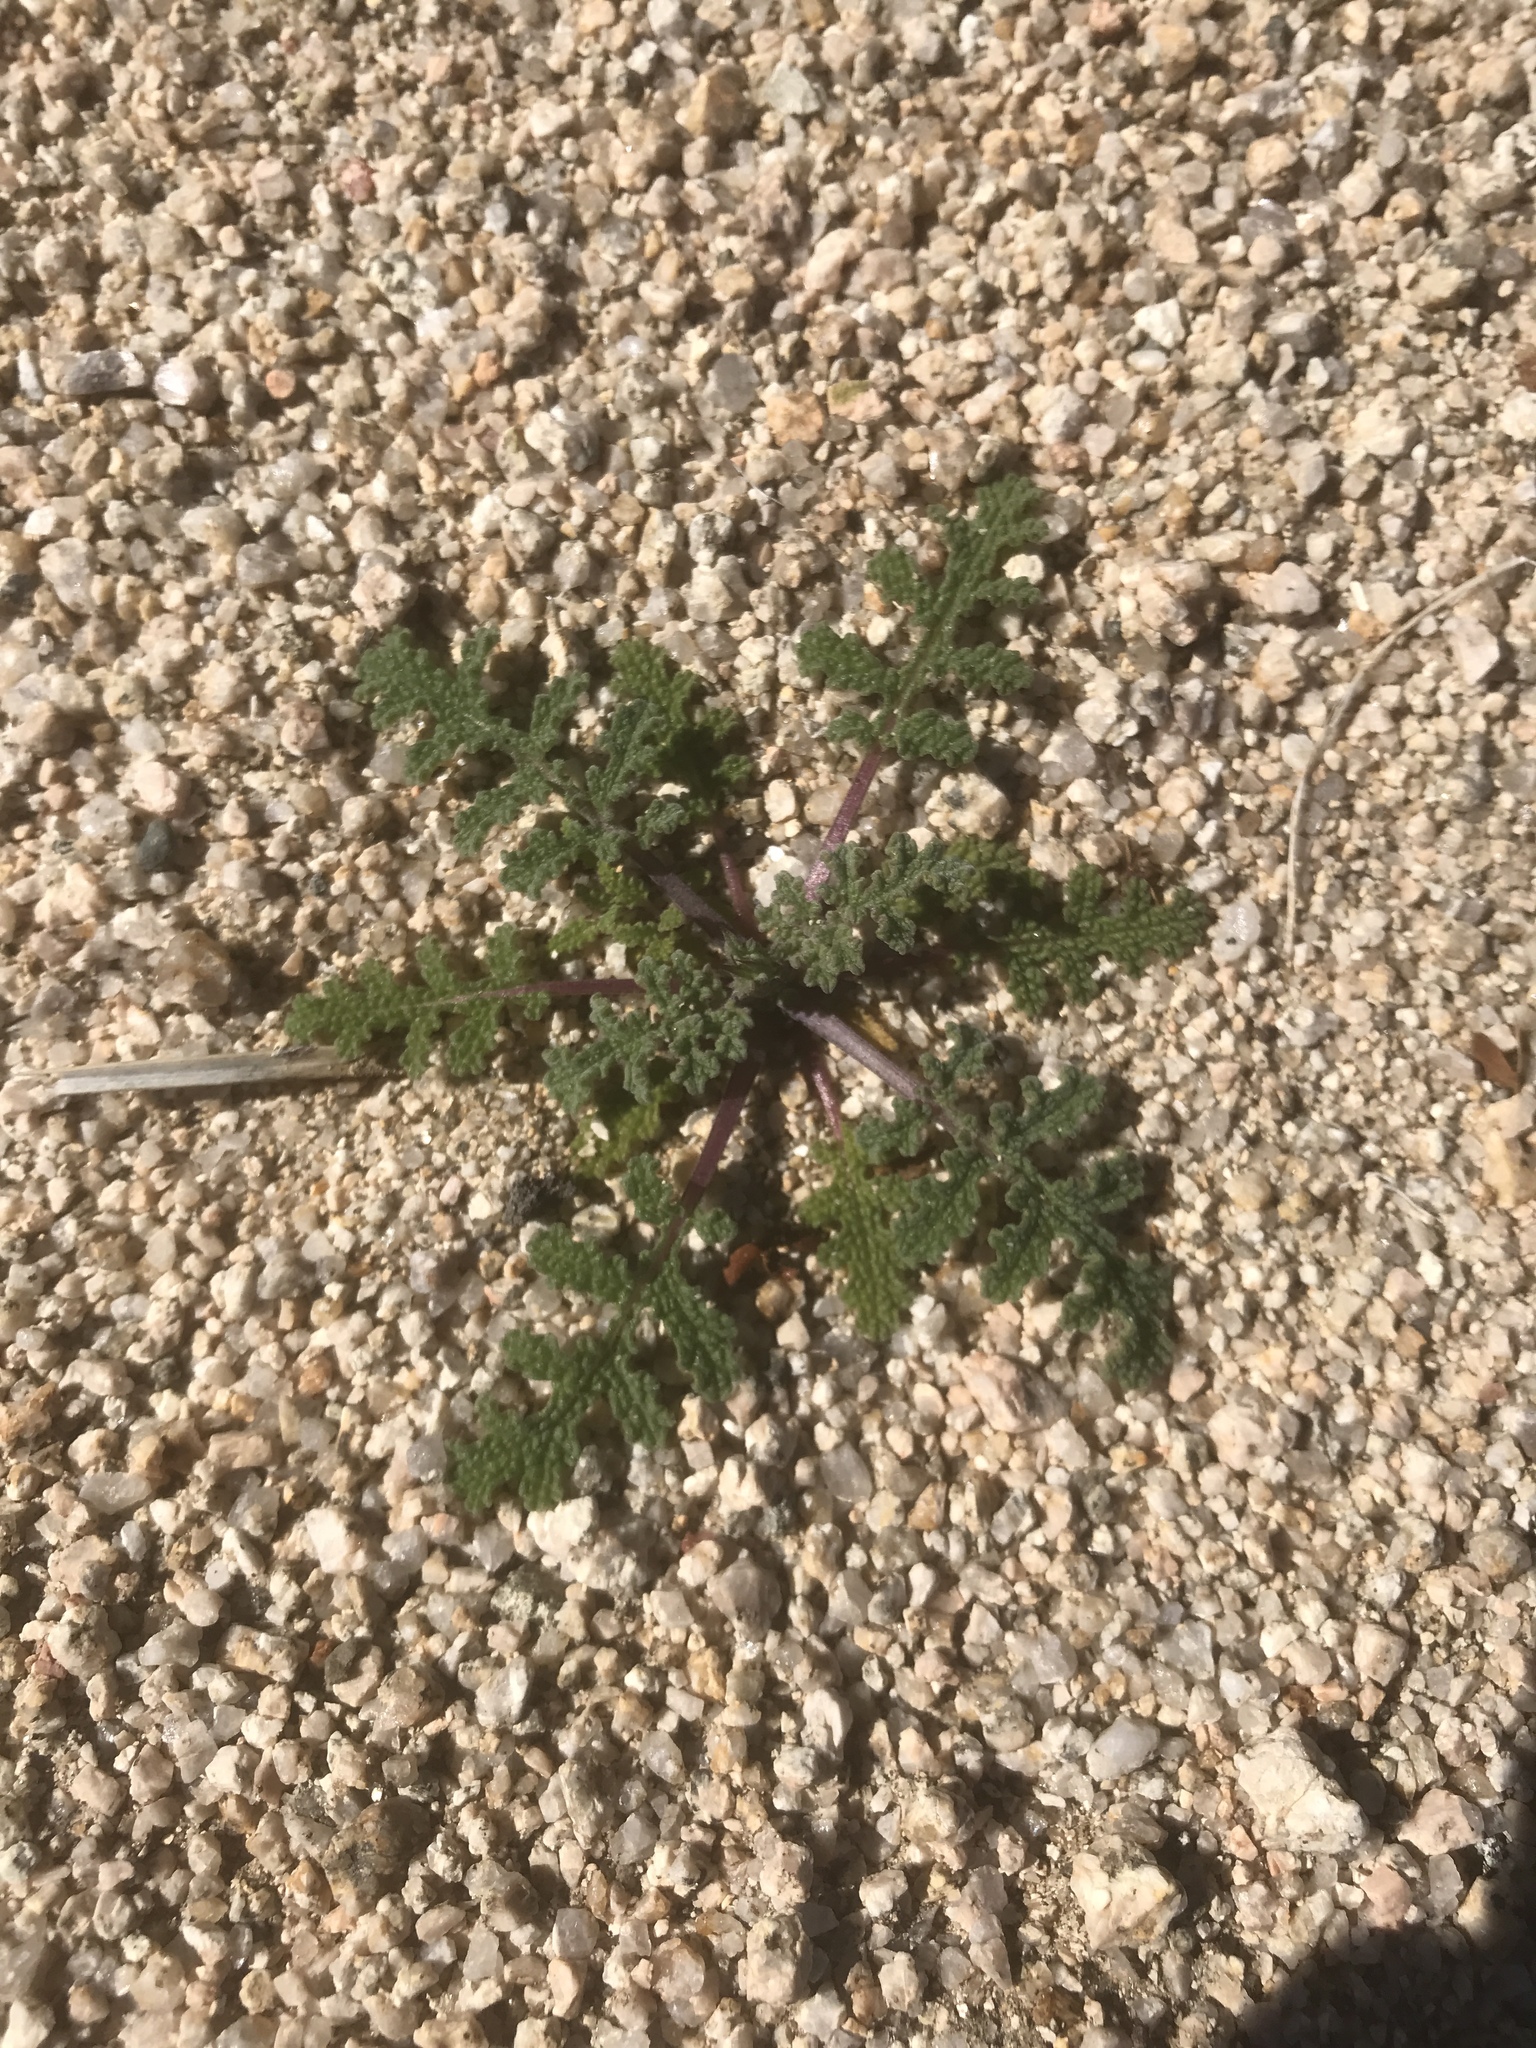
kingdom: Plantae
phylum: Tracheophyta
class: Magnoliopsida
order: Lamiales
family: Lamiaceae
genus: Salvia
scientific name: Salvia columbariae
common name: Chia
